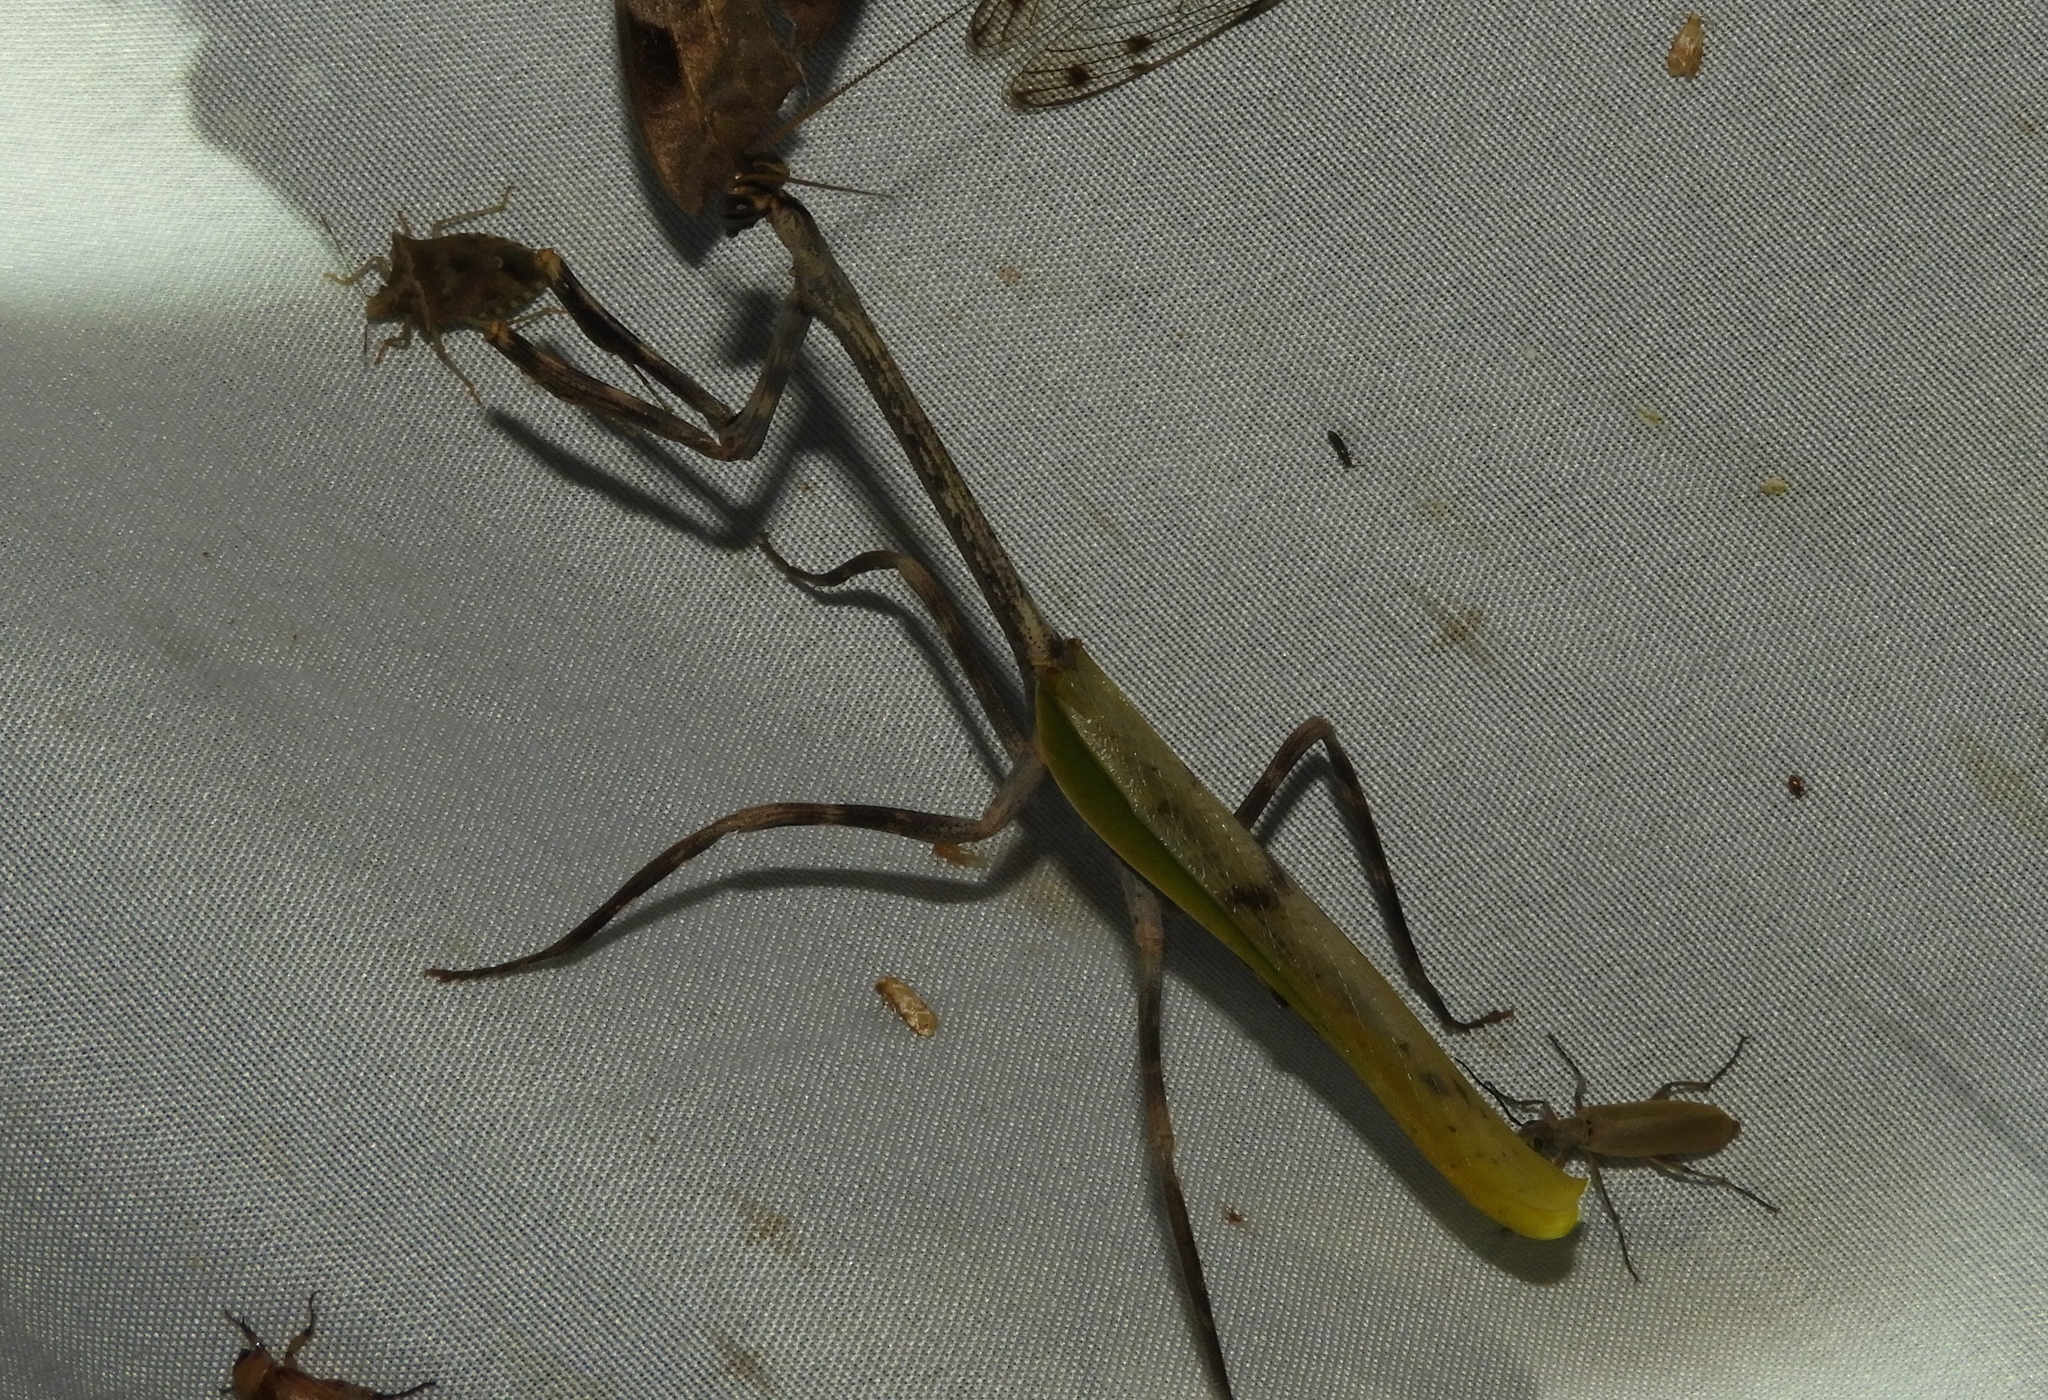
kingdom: Animalia
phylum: Arthropoda
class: Insecta
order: Mantodea
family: Mantidae
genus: Pseudovates
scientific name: Pseudovates
